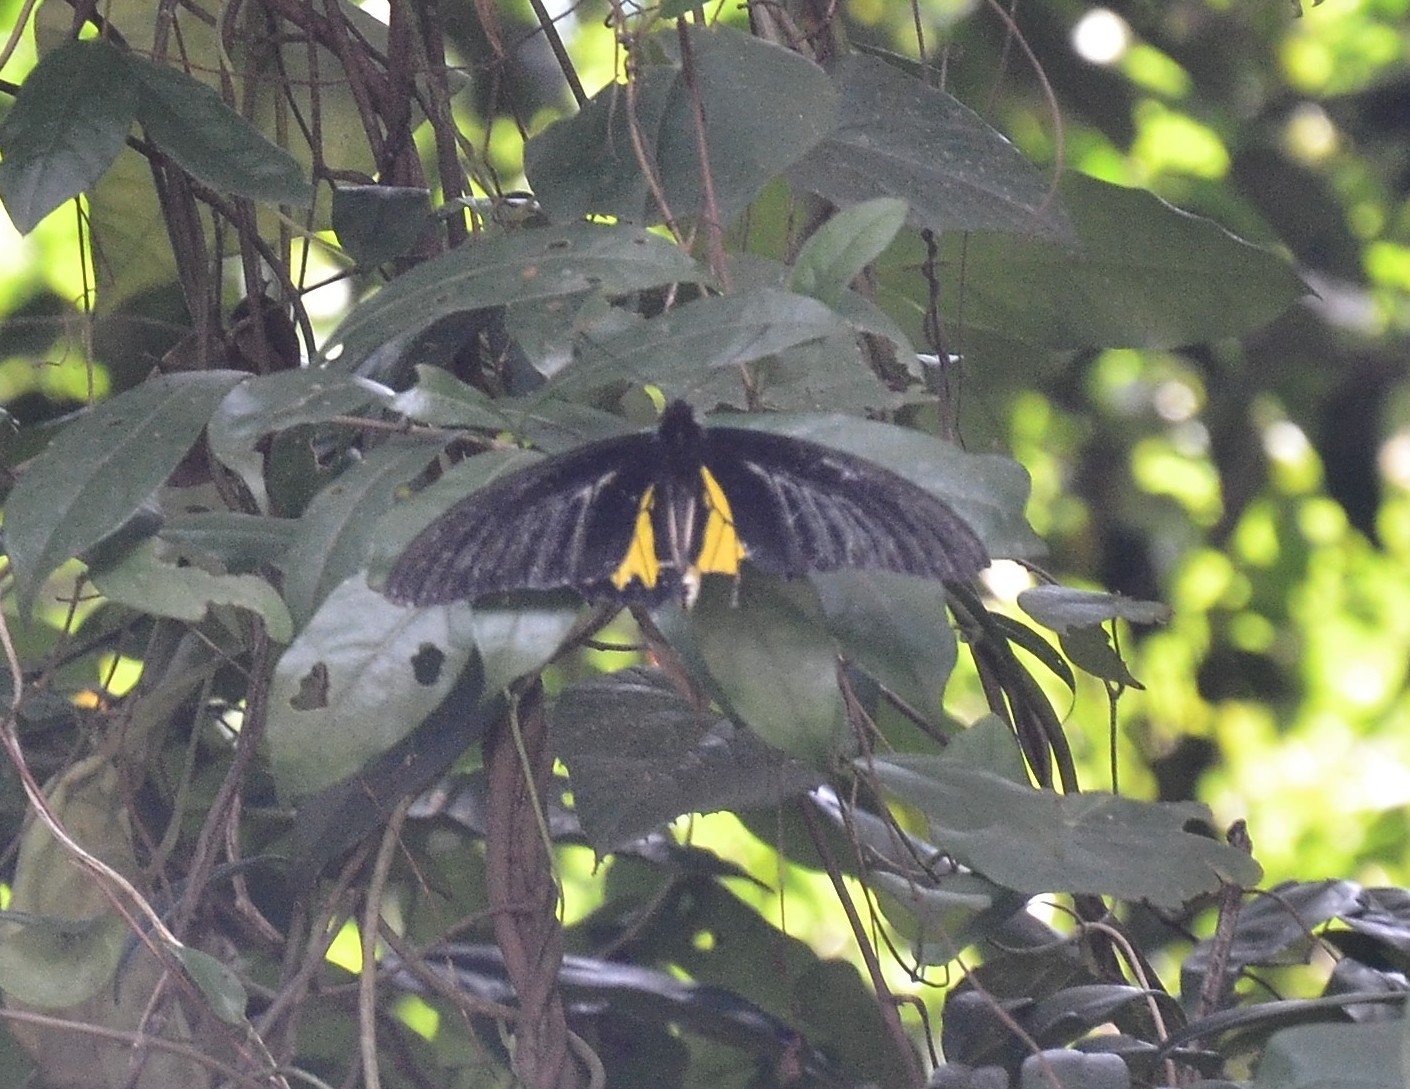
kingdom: Animalia
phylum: Arthropoda
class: Insecta
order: Lepidoptera
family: Papilionidae
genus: Troides
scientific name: Troides minos
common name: Malabar birdwing
